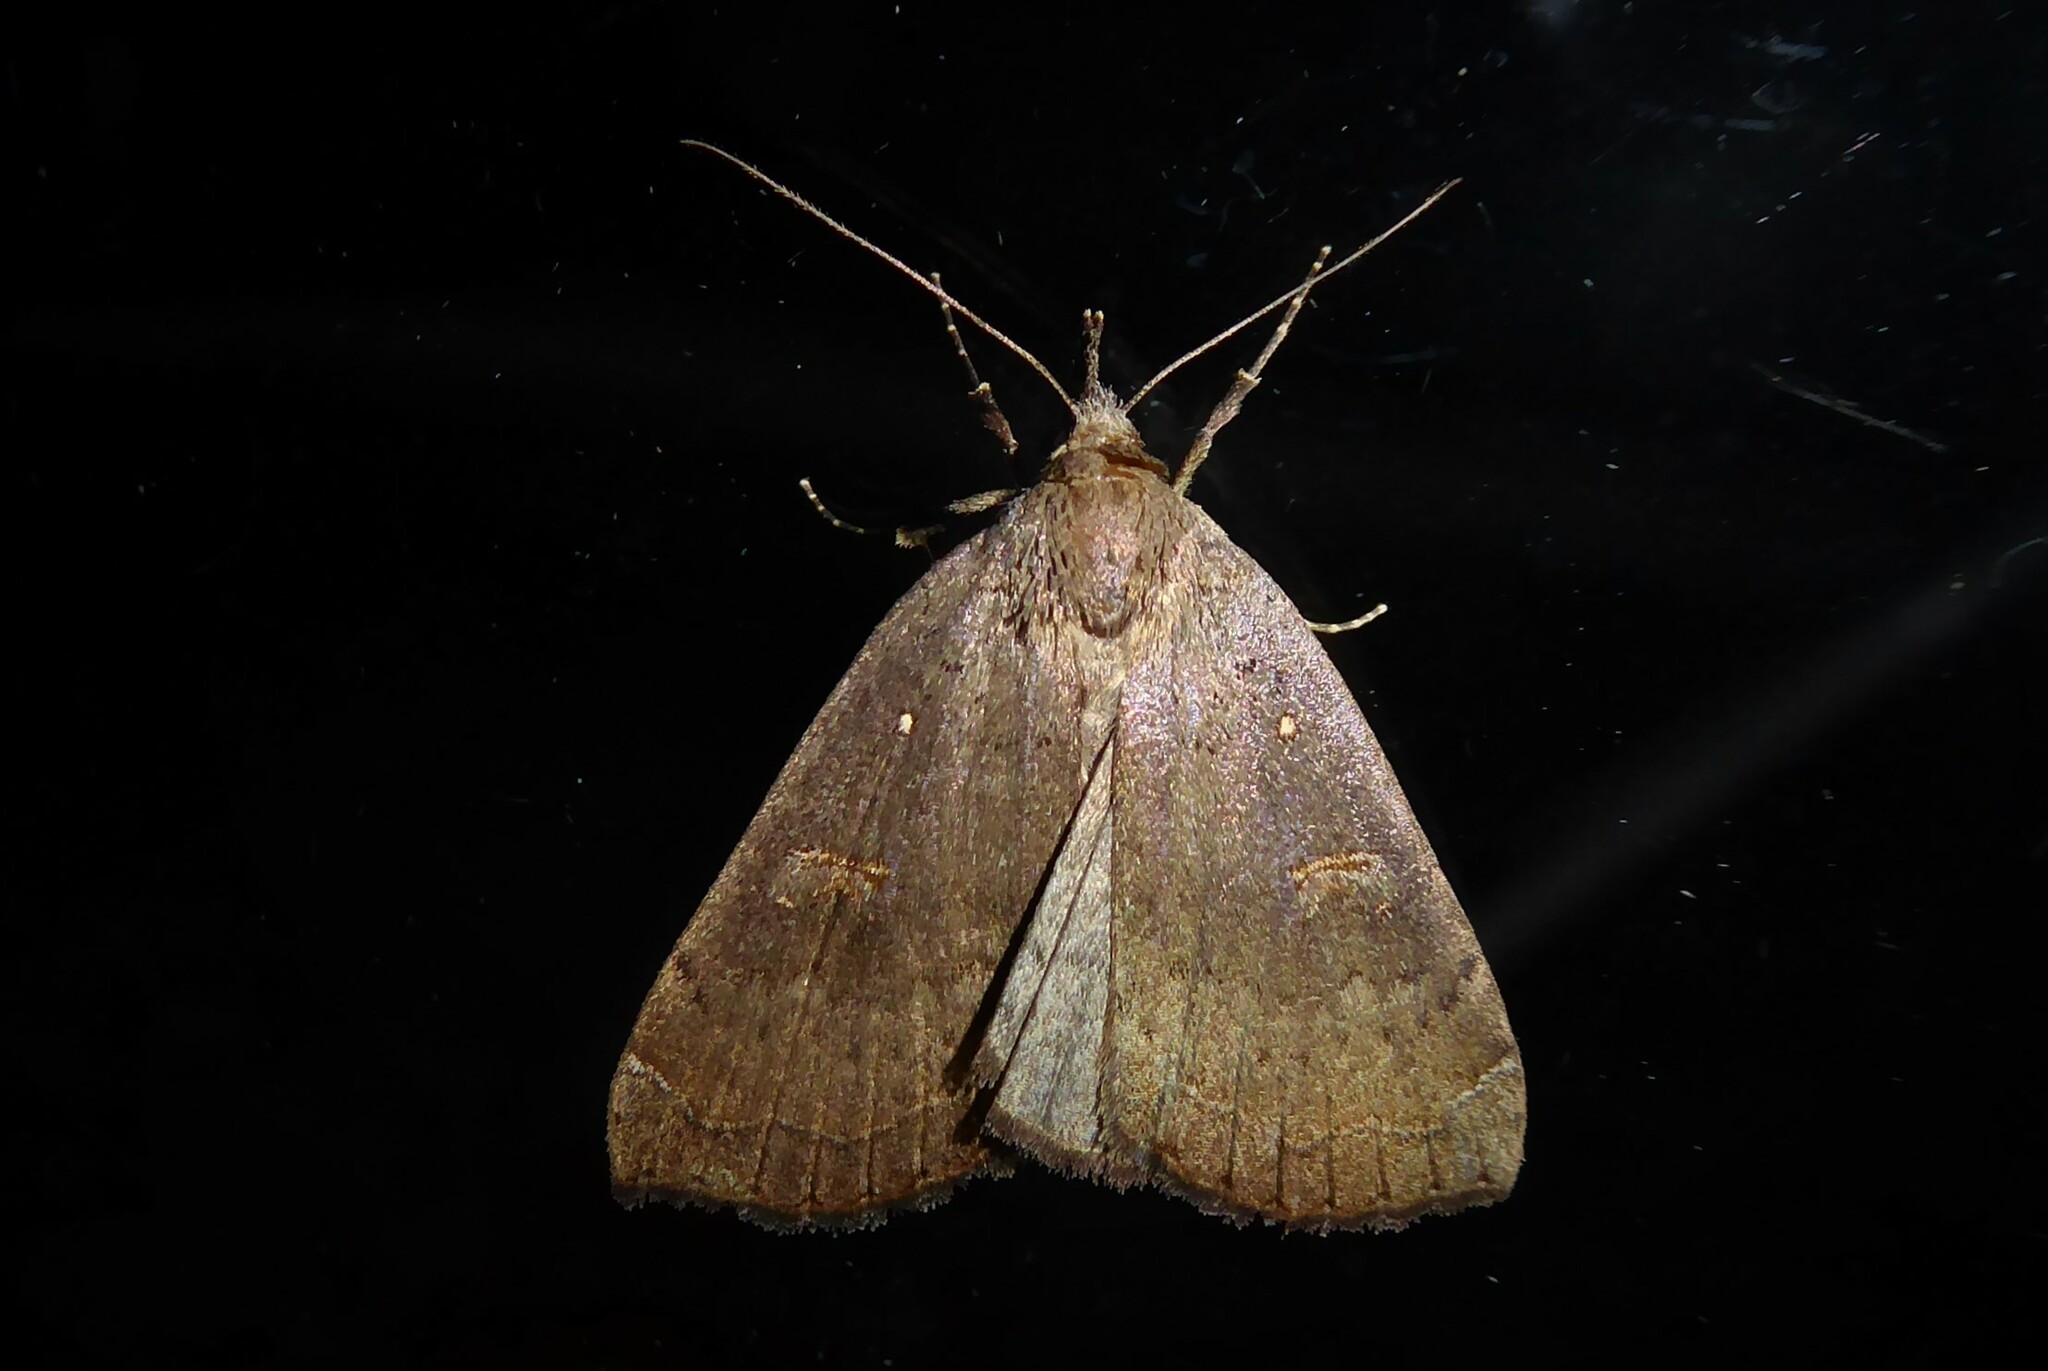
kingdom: Animalia
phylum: Arthropoda
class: Insecta
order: Lepidoptera
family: Erebidae
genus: Rhapsa
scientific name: Rhapsa scotosialis
